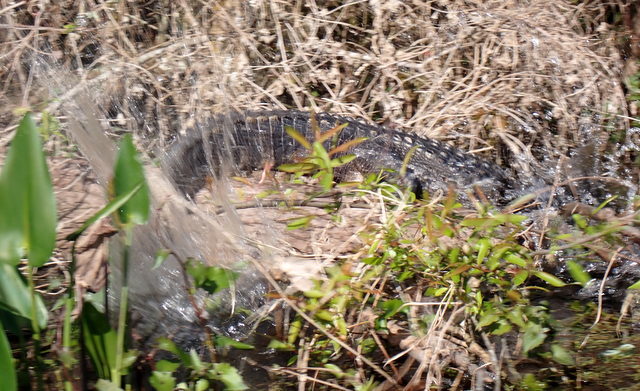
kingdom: Animalia
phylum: Chordata
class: Crocodylia
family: Alligatoridae
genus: Alligator
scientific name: Alligator mississippiensis
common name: American alligator
